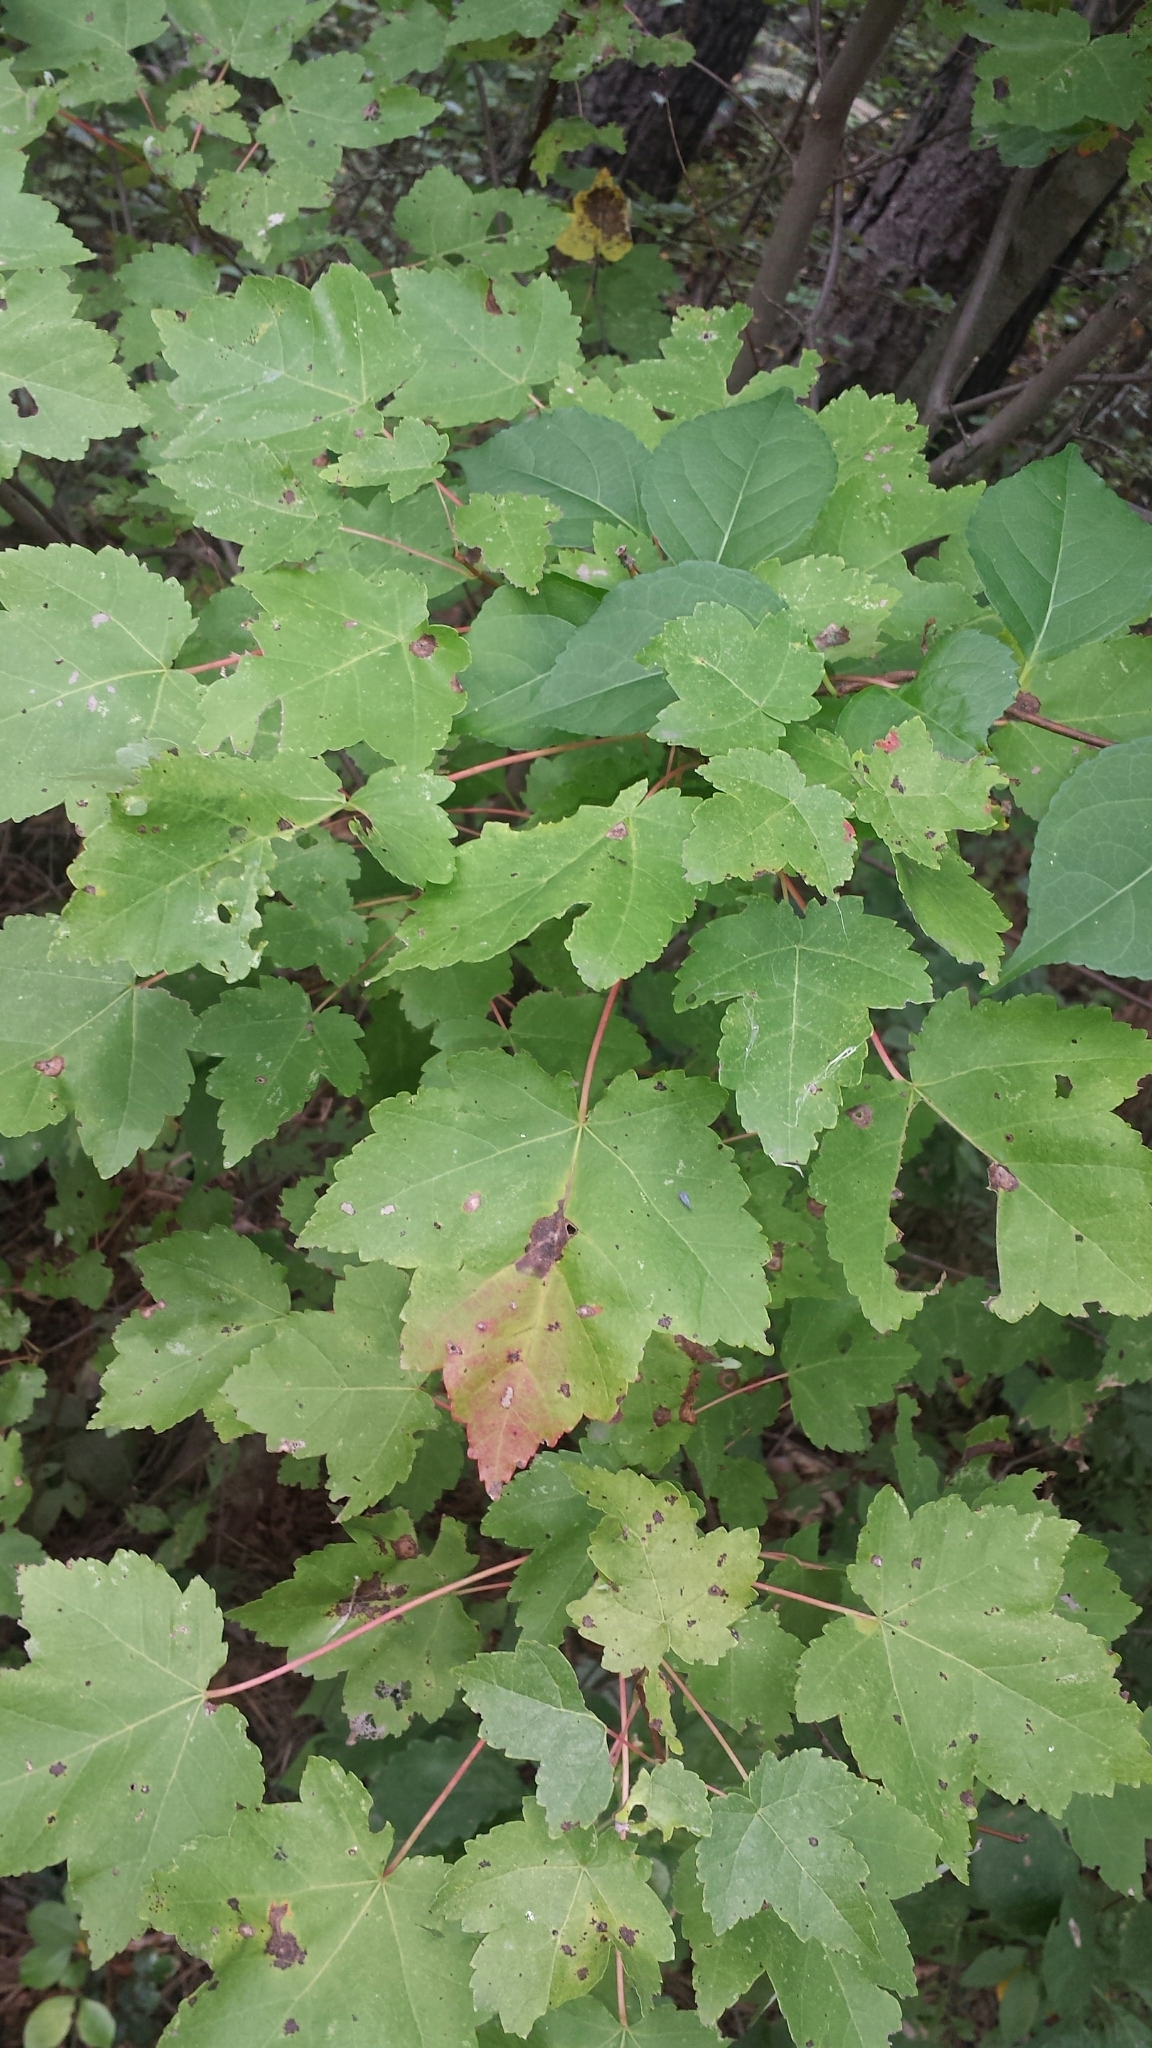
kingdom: Plantae
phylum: Tracheophyta
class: Magnoliopsida
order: Sapindales
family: Sapindaceae
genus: Acer
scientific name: Acer rubrum
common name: Red maple
